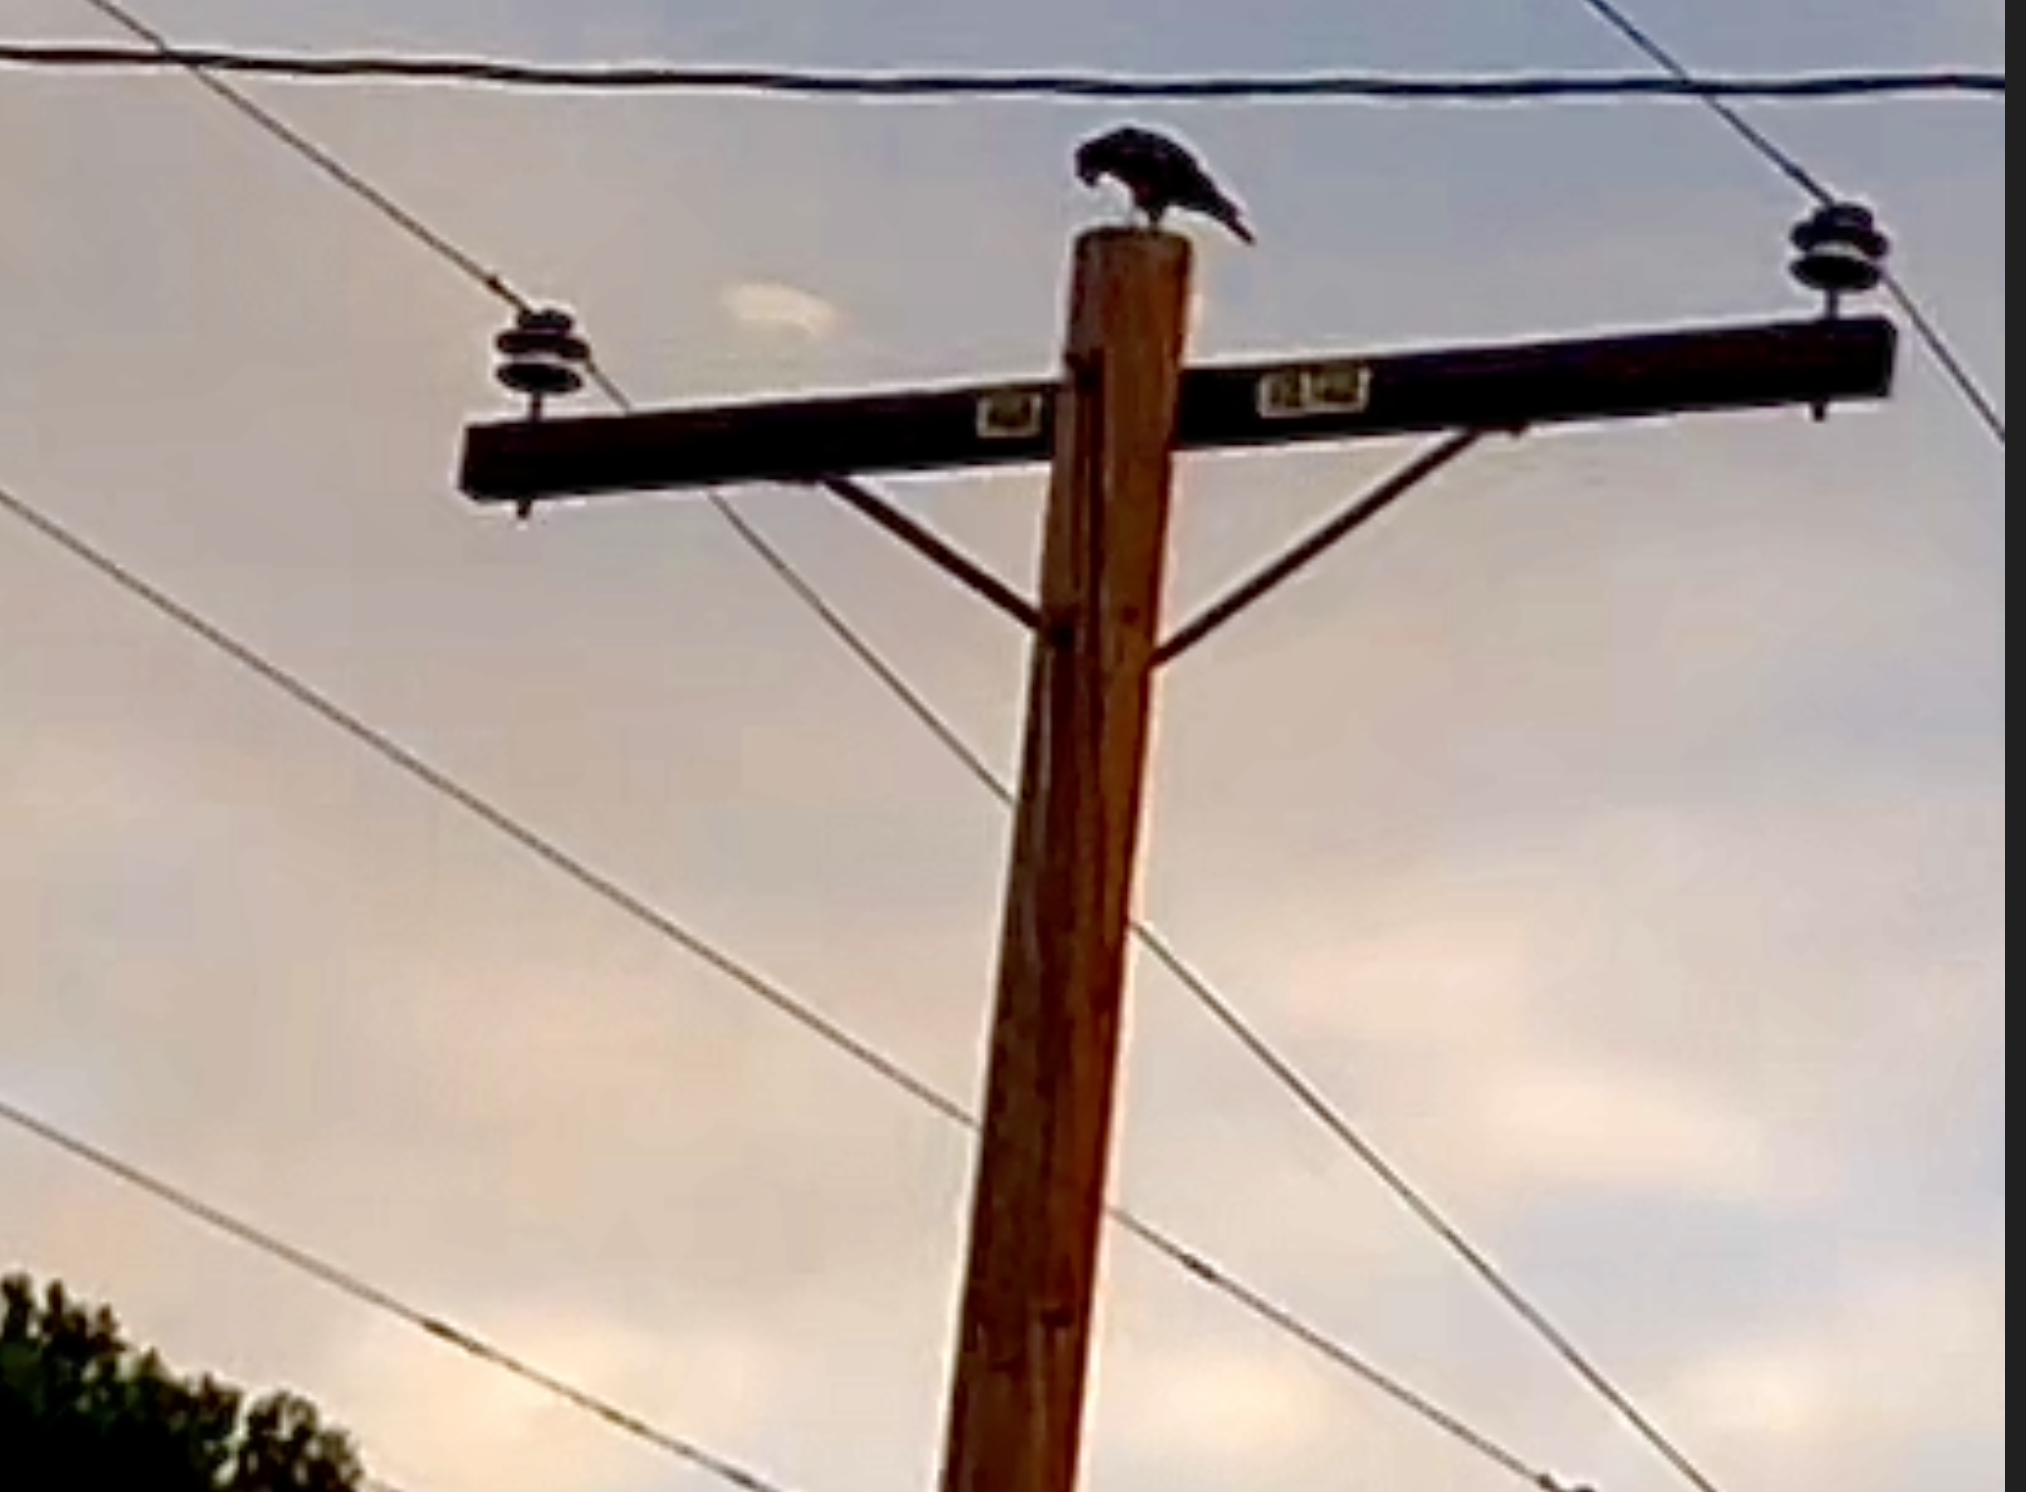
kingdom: Animalia
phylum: Chordata
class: Aves
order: Accipitriformes
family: Accipitridae
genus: Buteo
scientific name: Buteo lineatus
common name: Red-shouldered hawk
